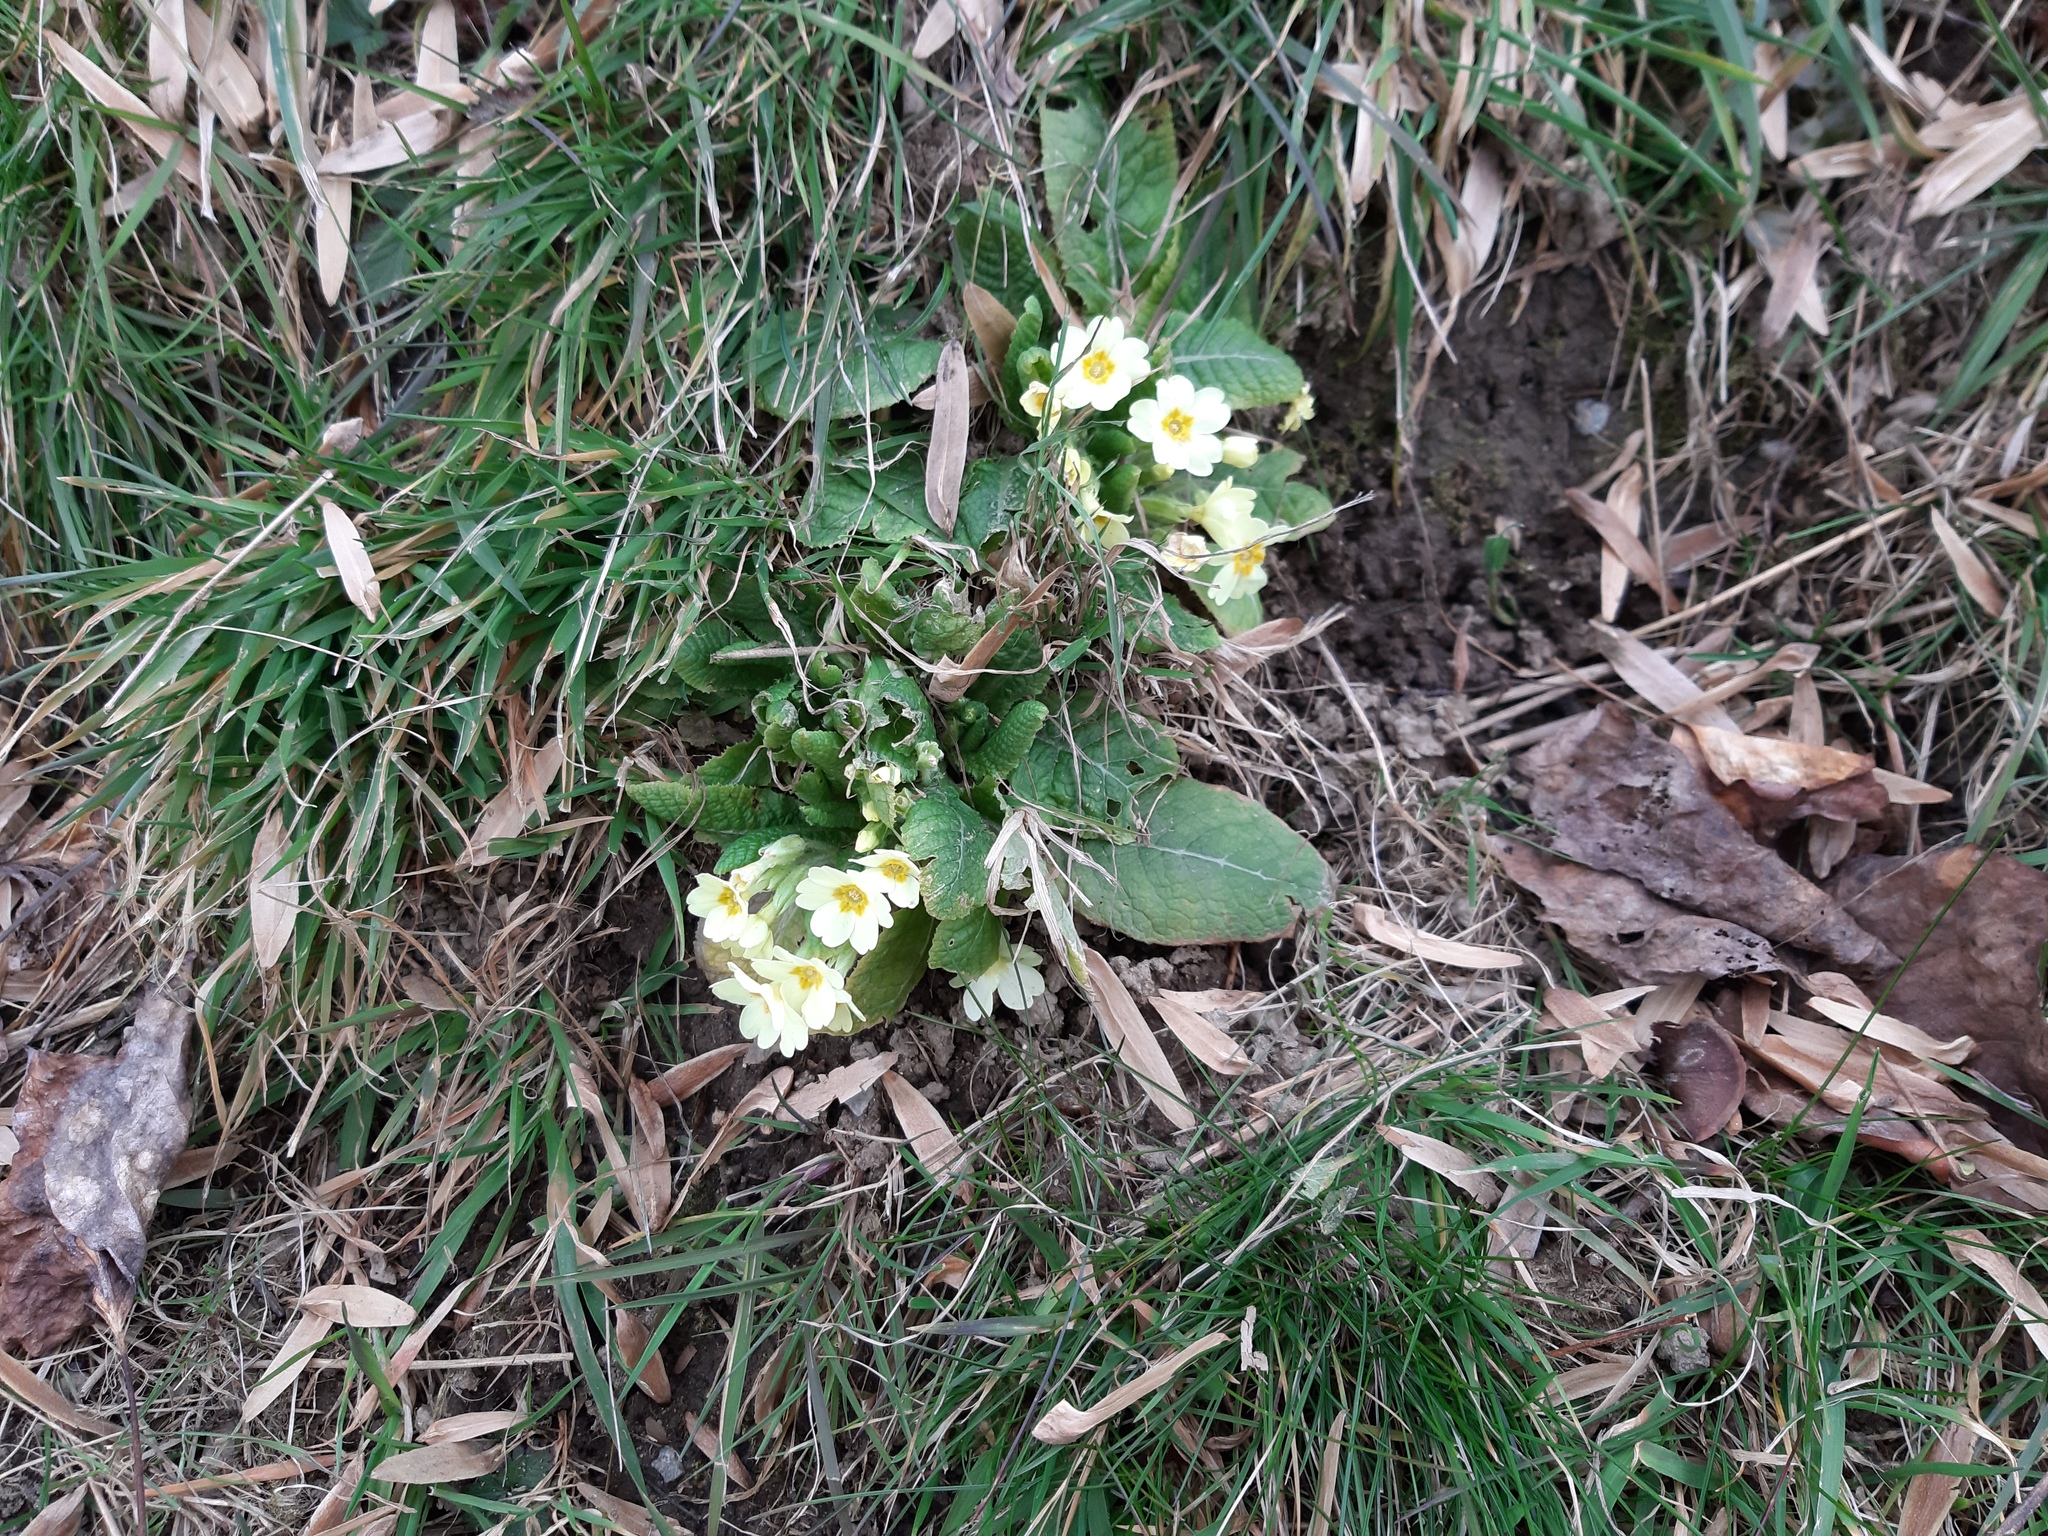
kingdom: Plantae
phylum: Tracheophyta
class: Magnoliopsida
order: Ericales
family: Primulaceae
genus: Primula
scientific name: Primula vulgaris
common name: Primrose
